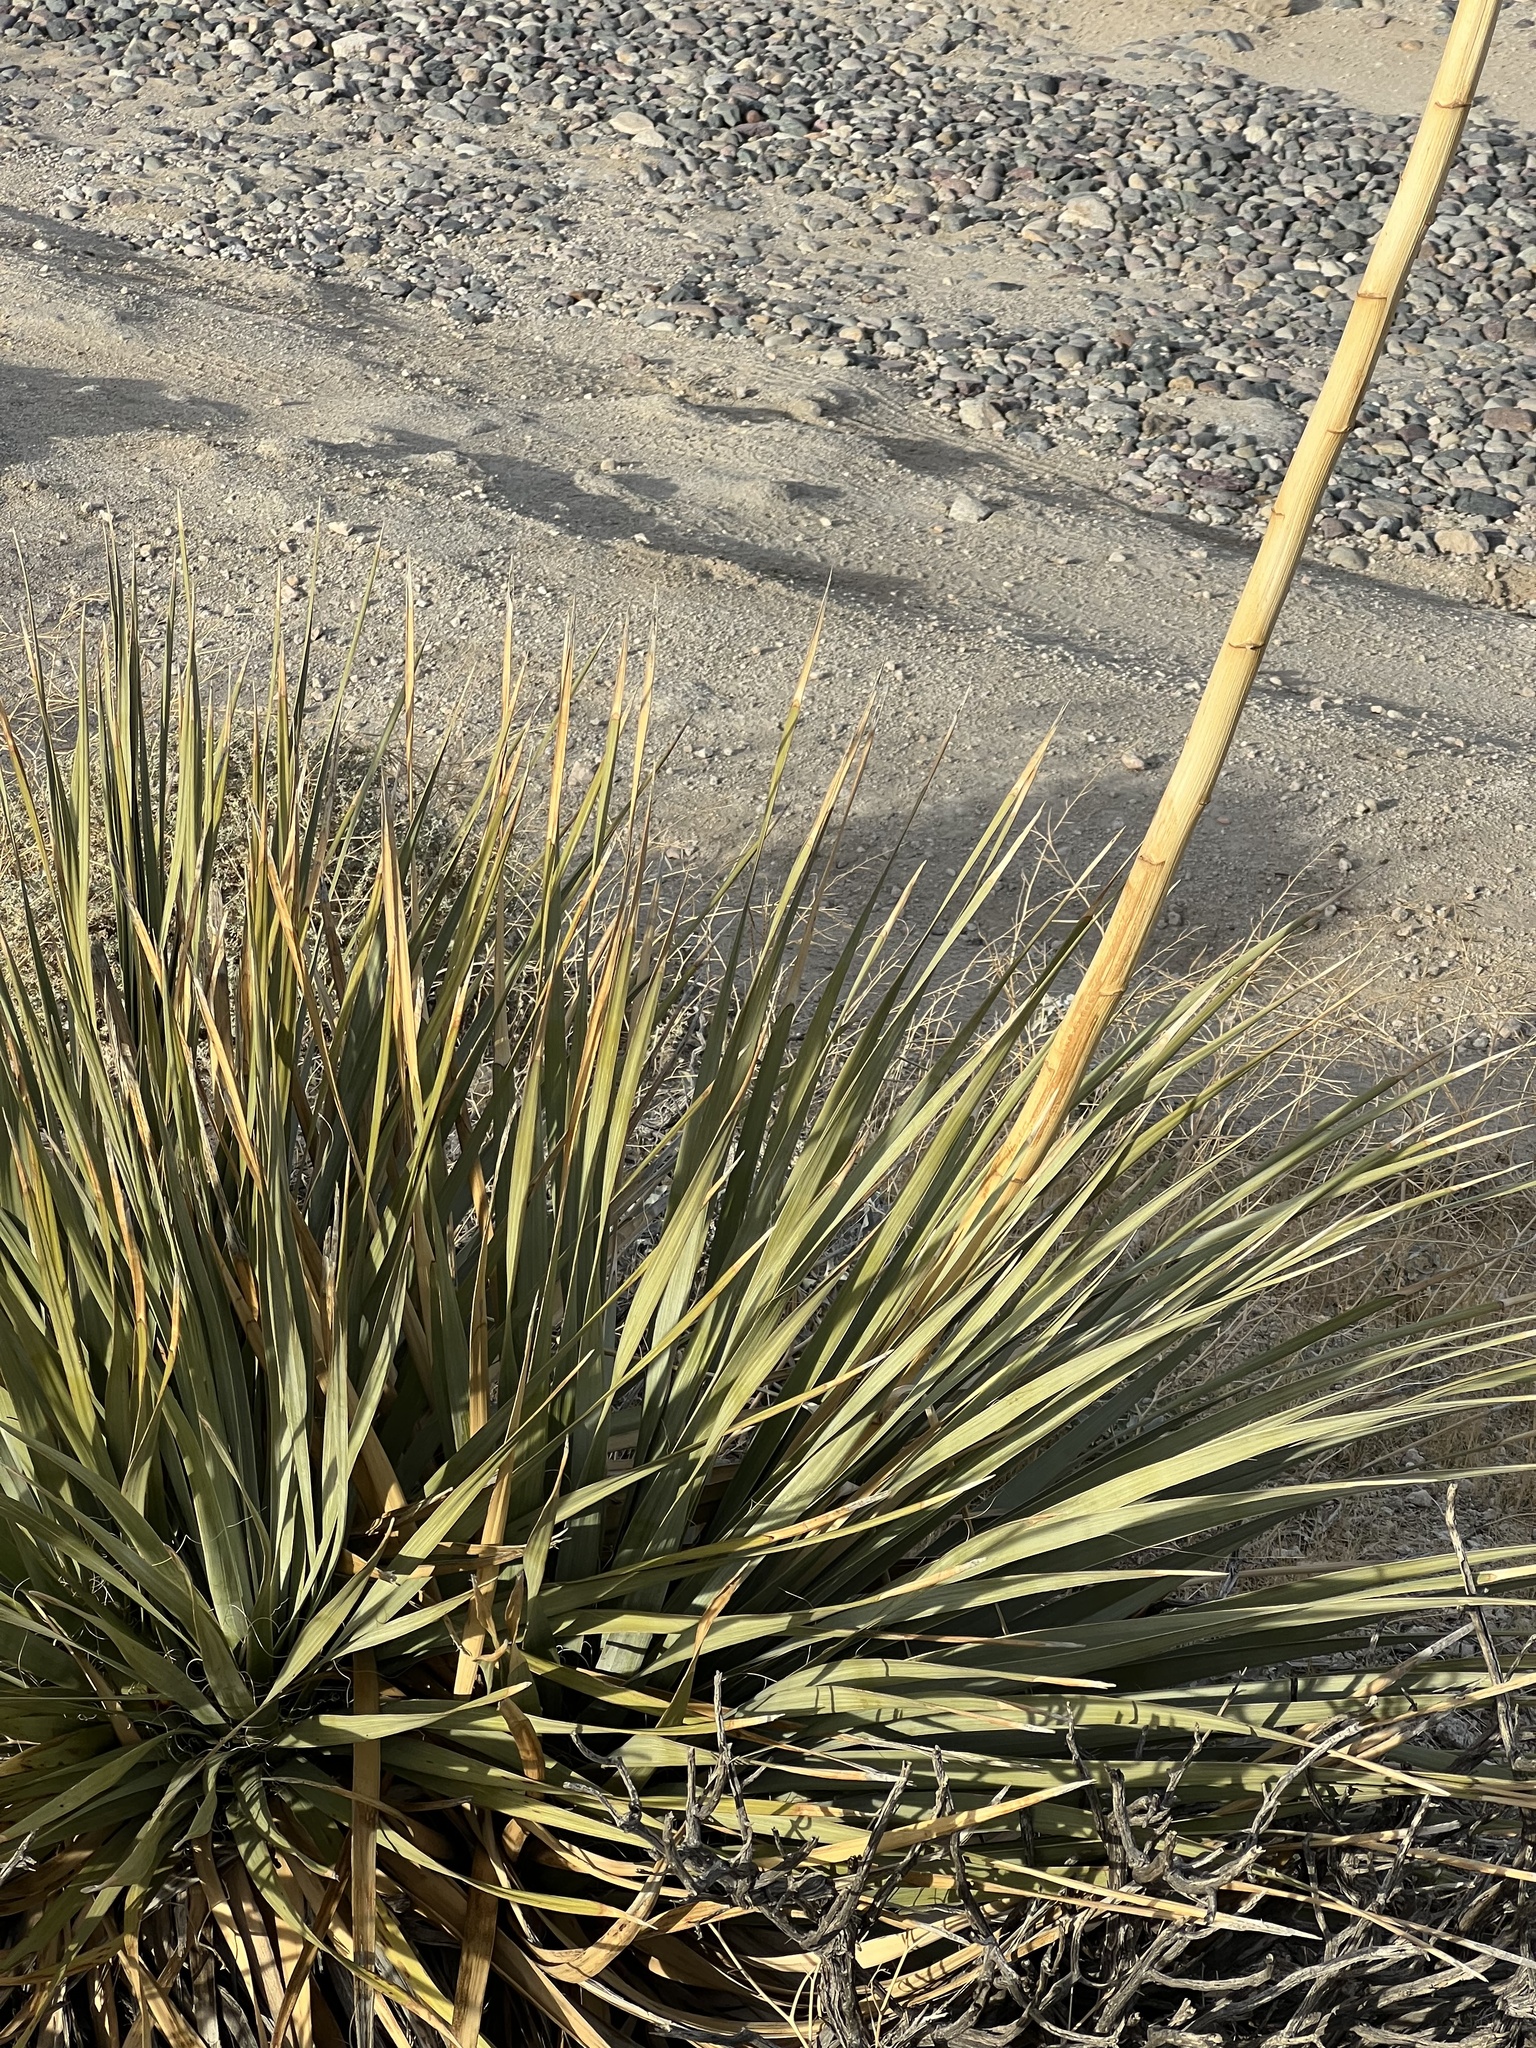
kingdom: Plantae
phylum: Tracheophyta
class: Liliopsida
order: Asparagales
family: Asparagaceae
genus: Nolina
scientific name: Nolina bigelovii
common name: Bigelow bear-grass
